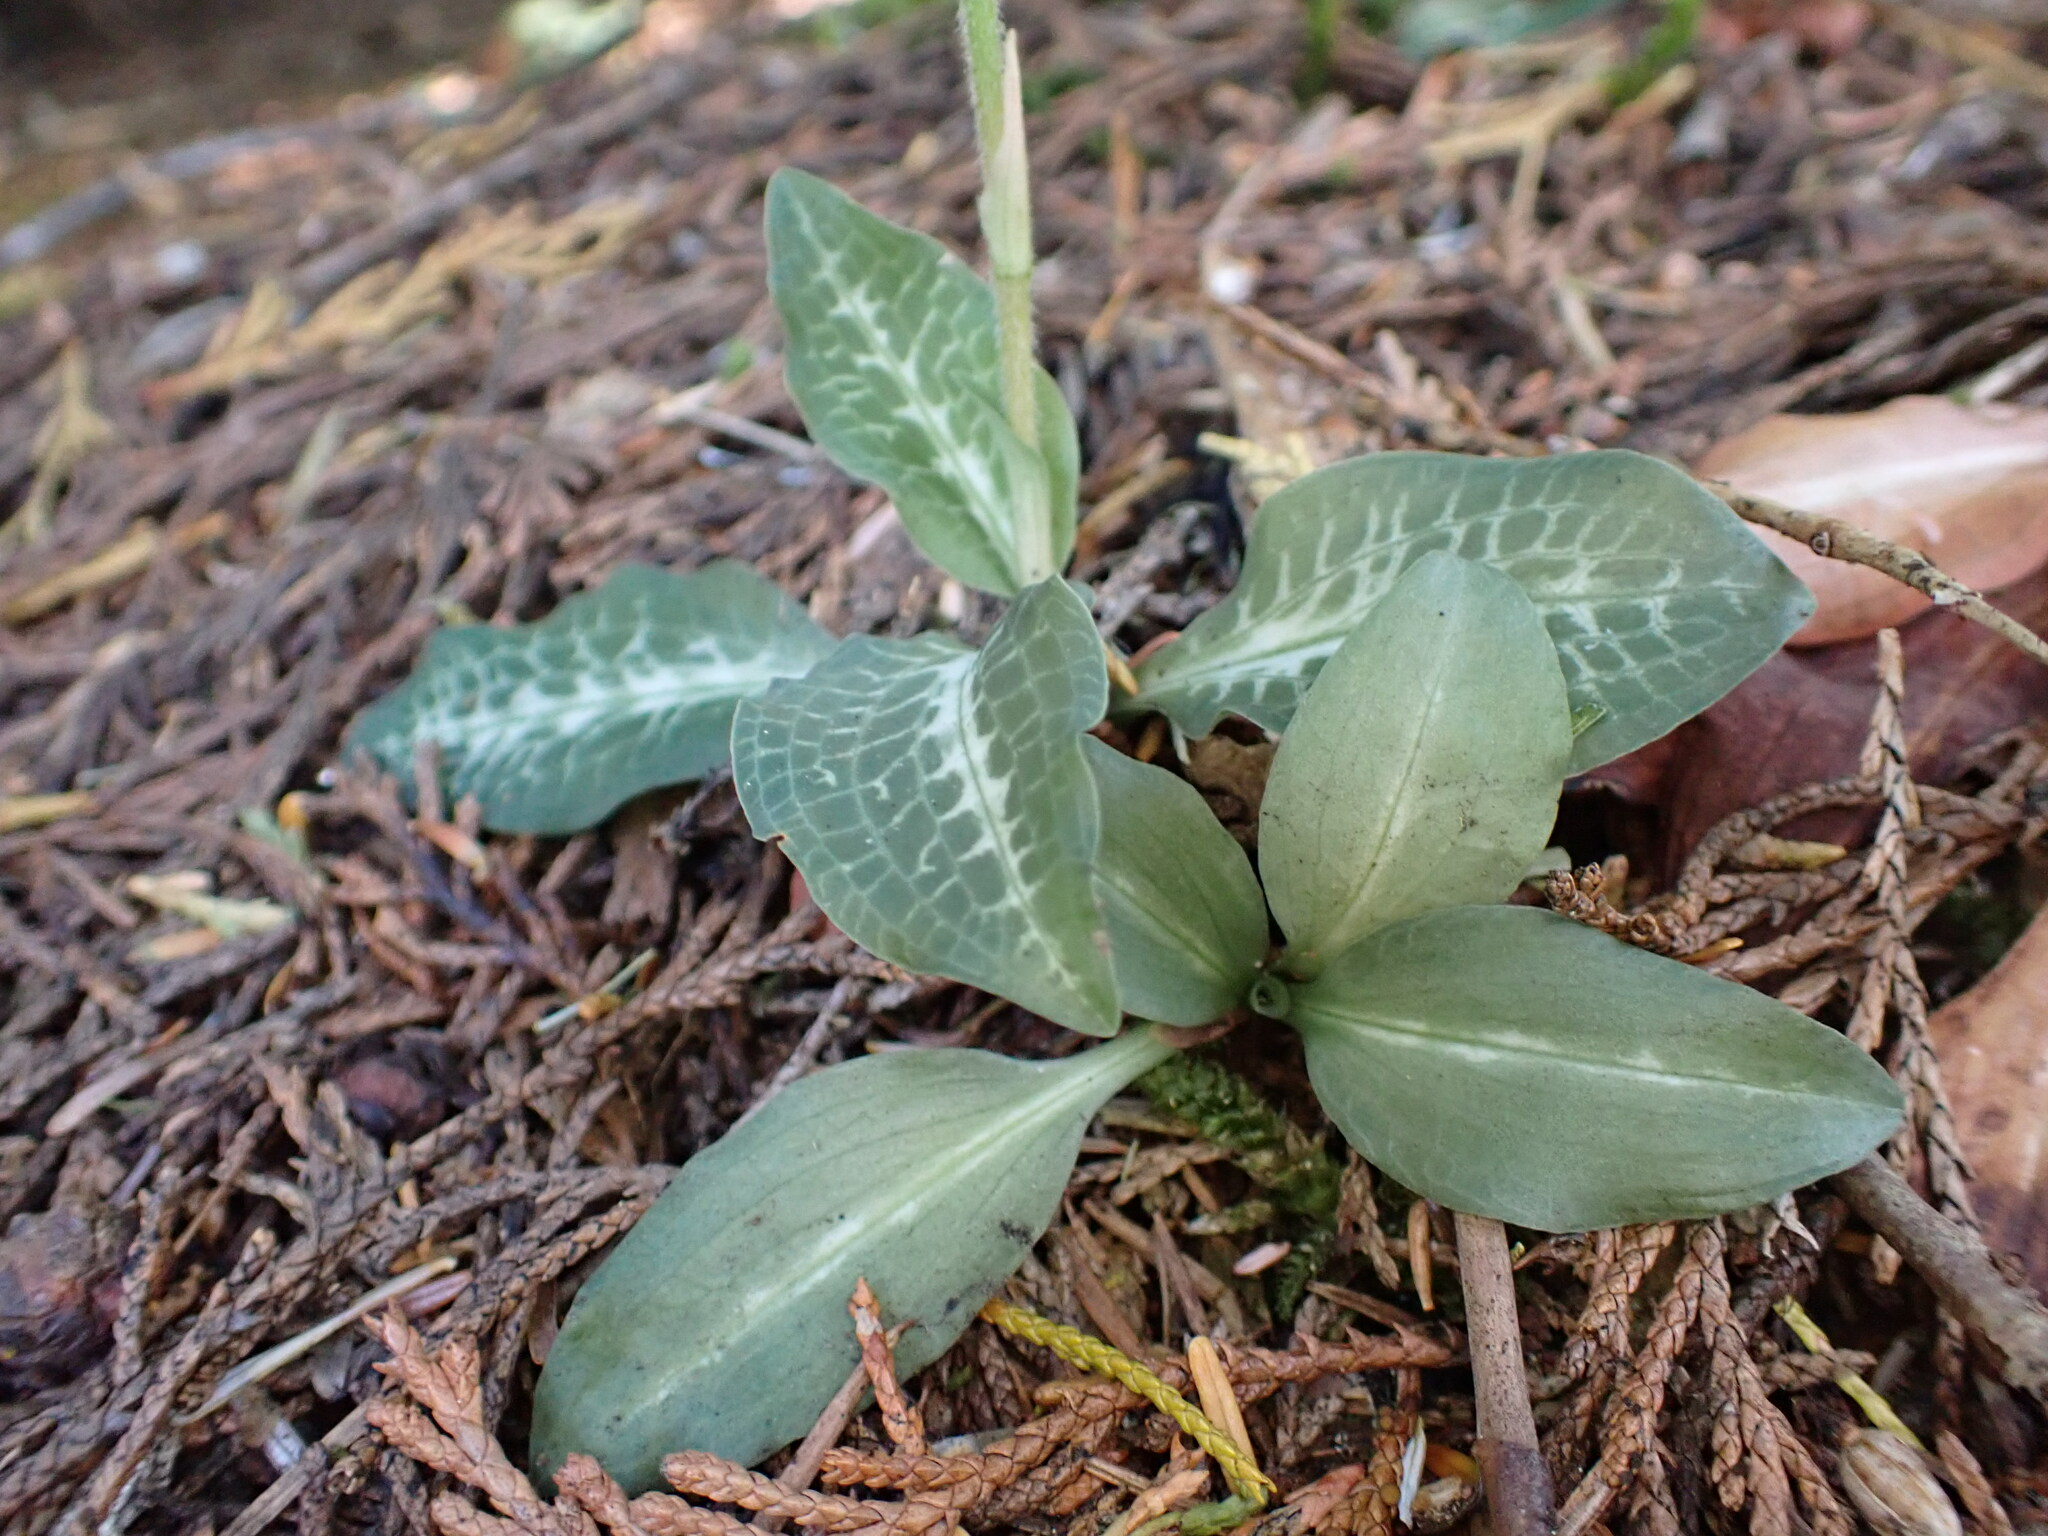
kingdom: Plantae
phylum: Tracheophyta
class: Liliopsida
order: Asparagales
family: Orchidaceae
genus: Goodyera
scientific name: Goodyera oblongifolia
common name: Giant rattlesnake-plantain
